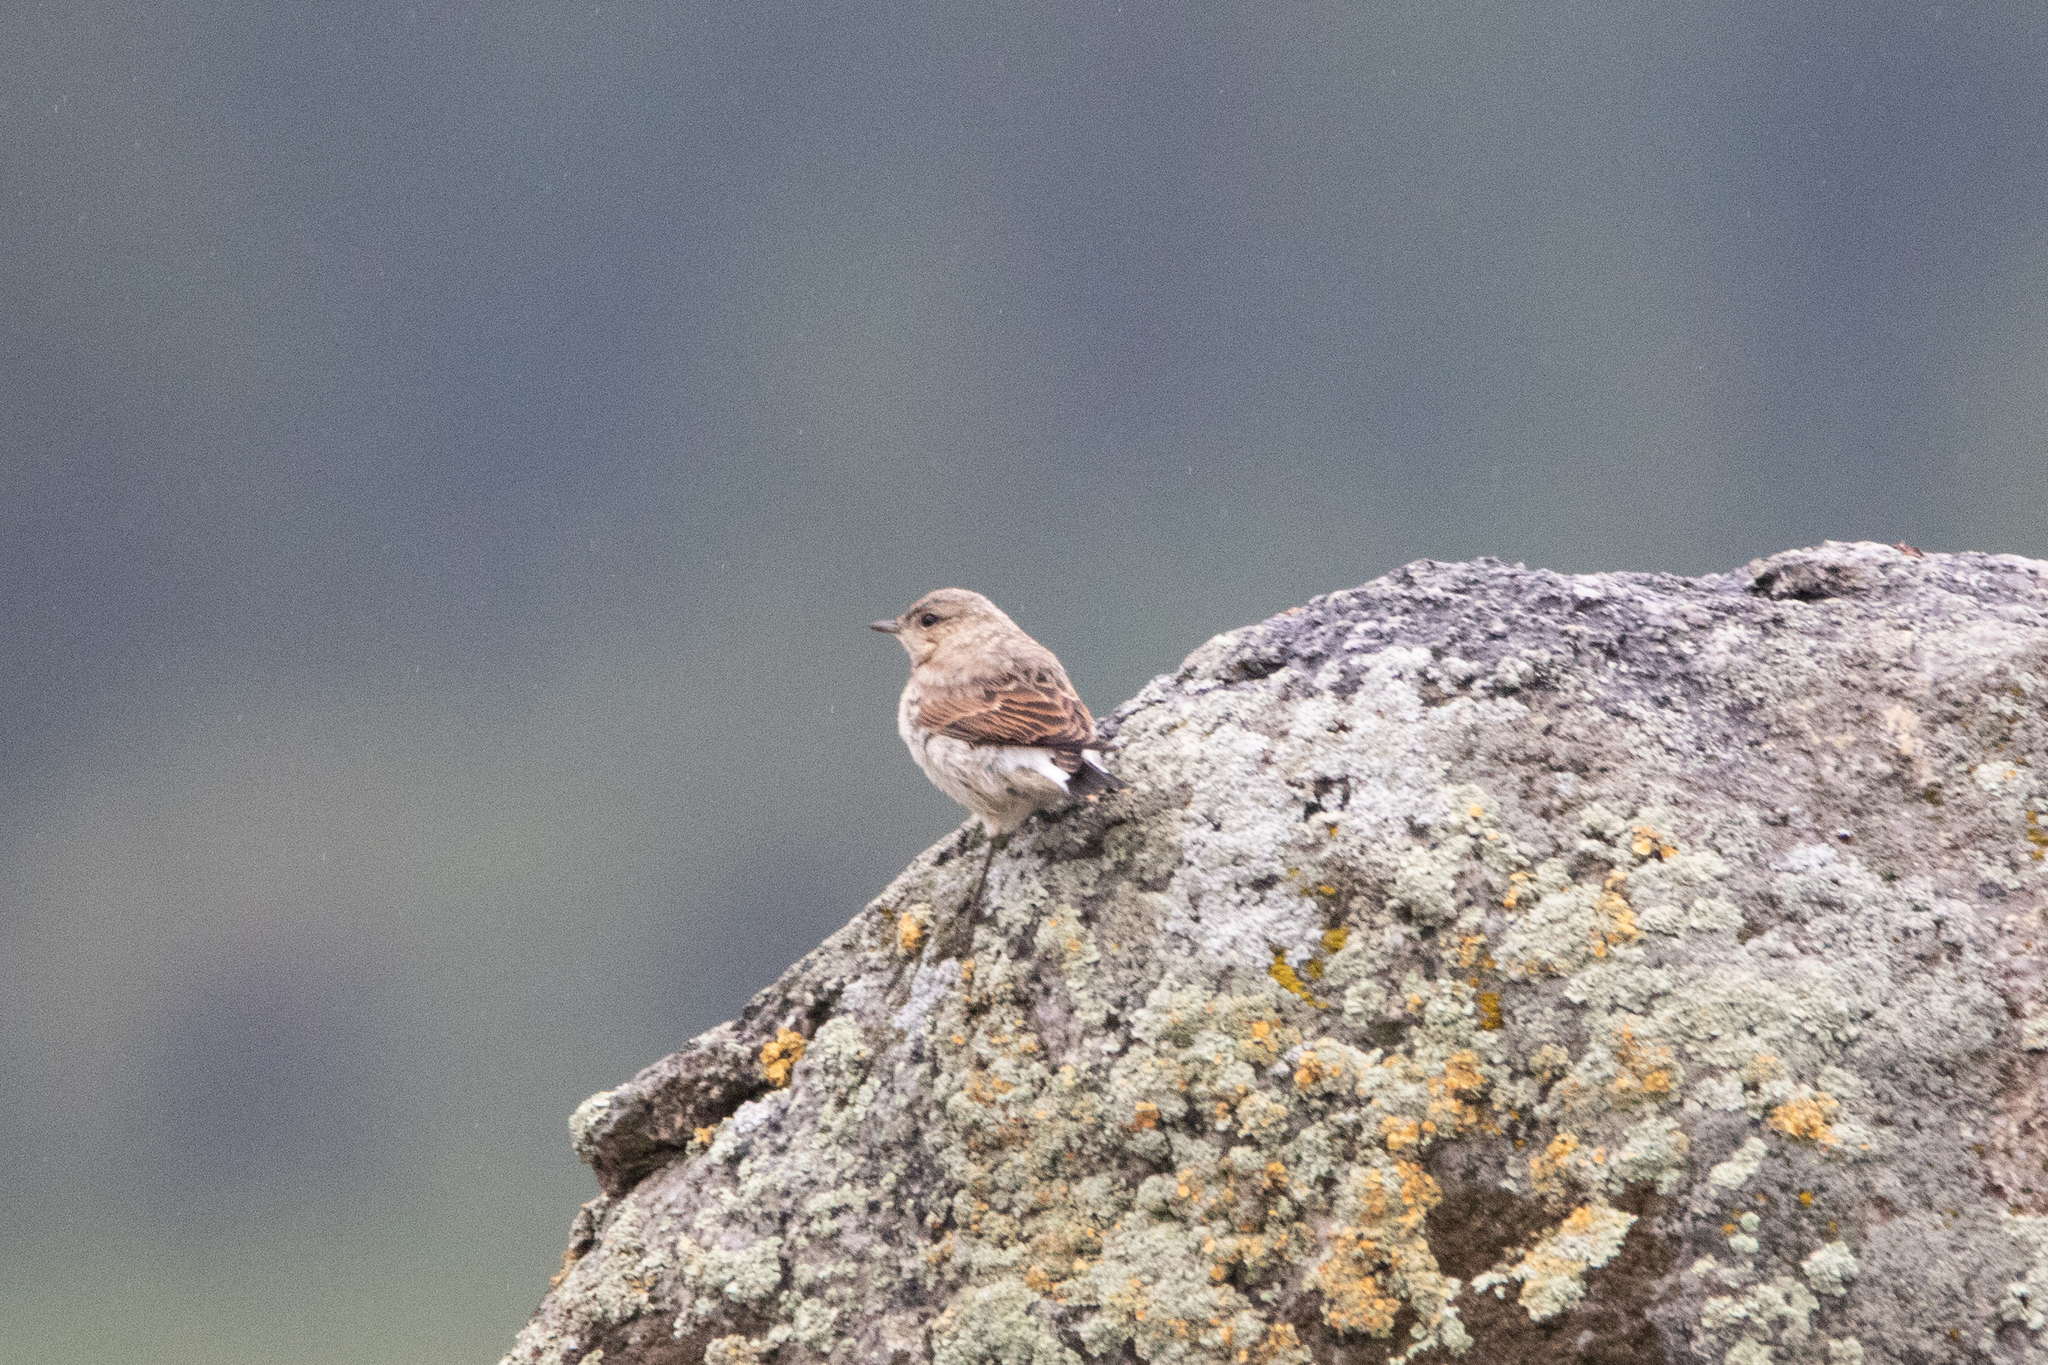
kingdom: Animalia
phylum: Chordata
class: Aves
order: Passeriformes
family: Muscicapidae
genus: Oenanthe
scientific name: Oenanthe oenanthe
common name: Northern wheatear
